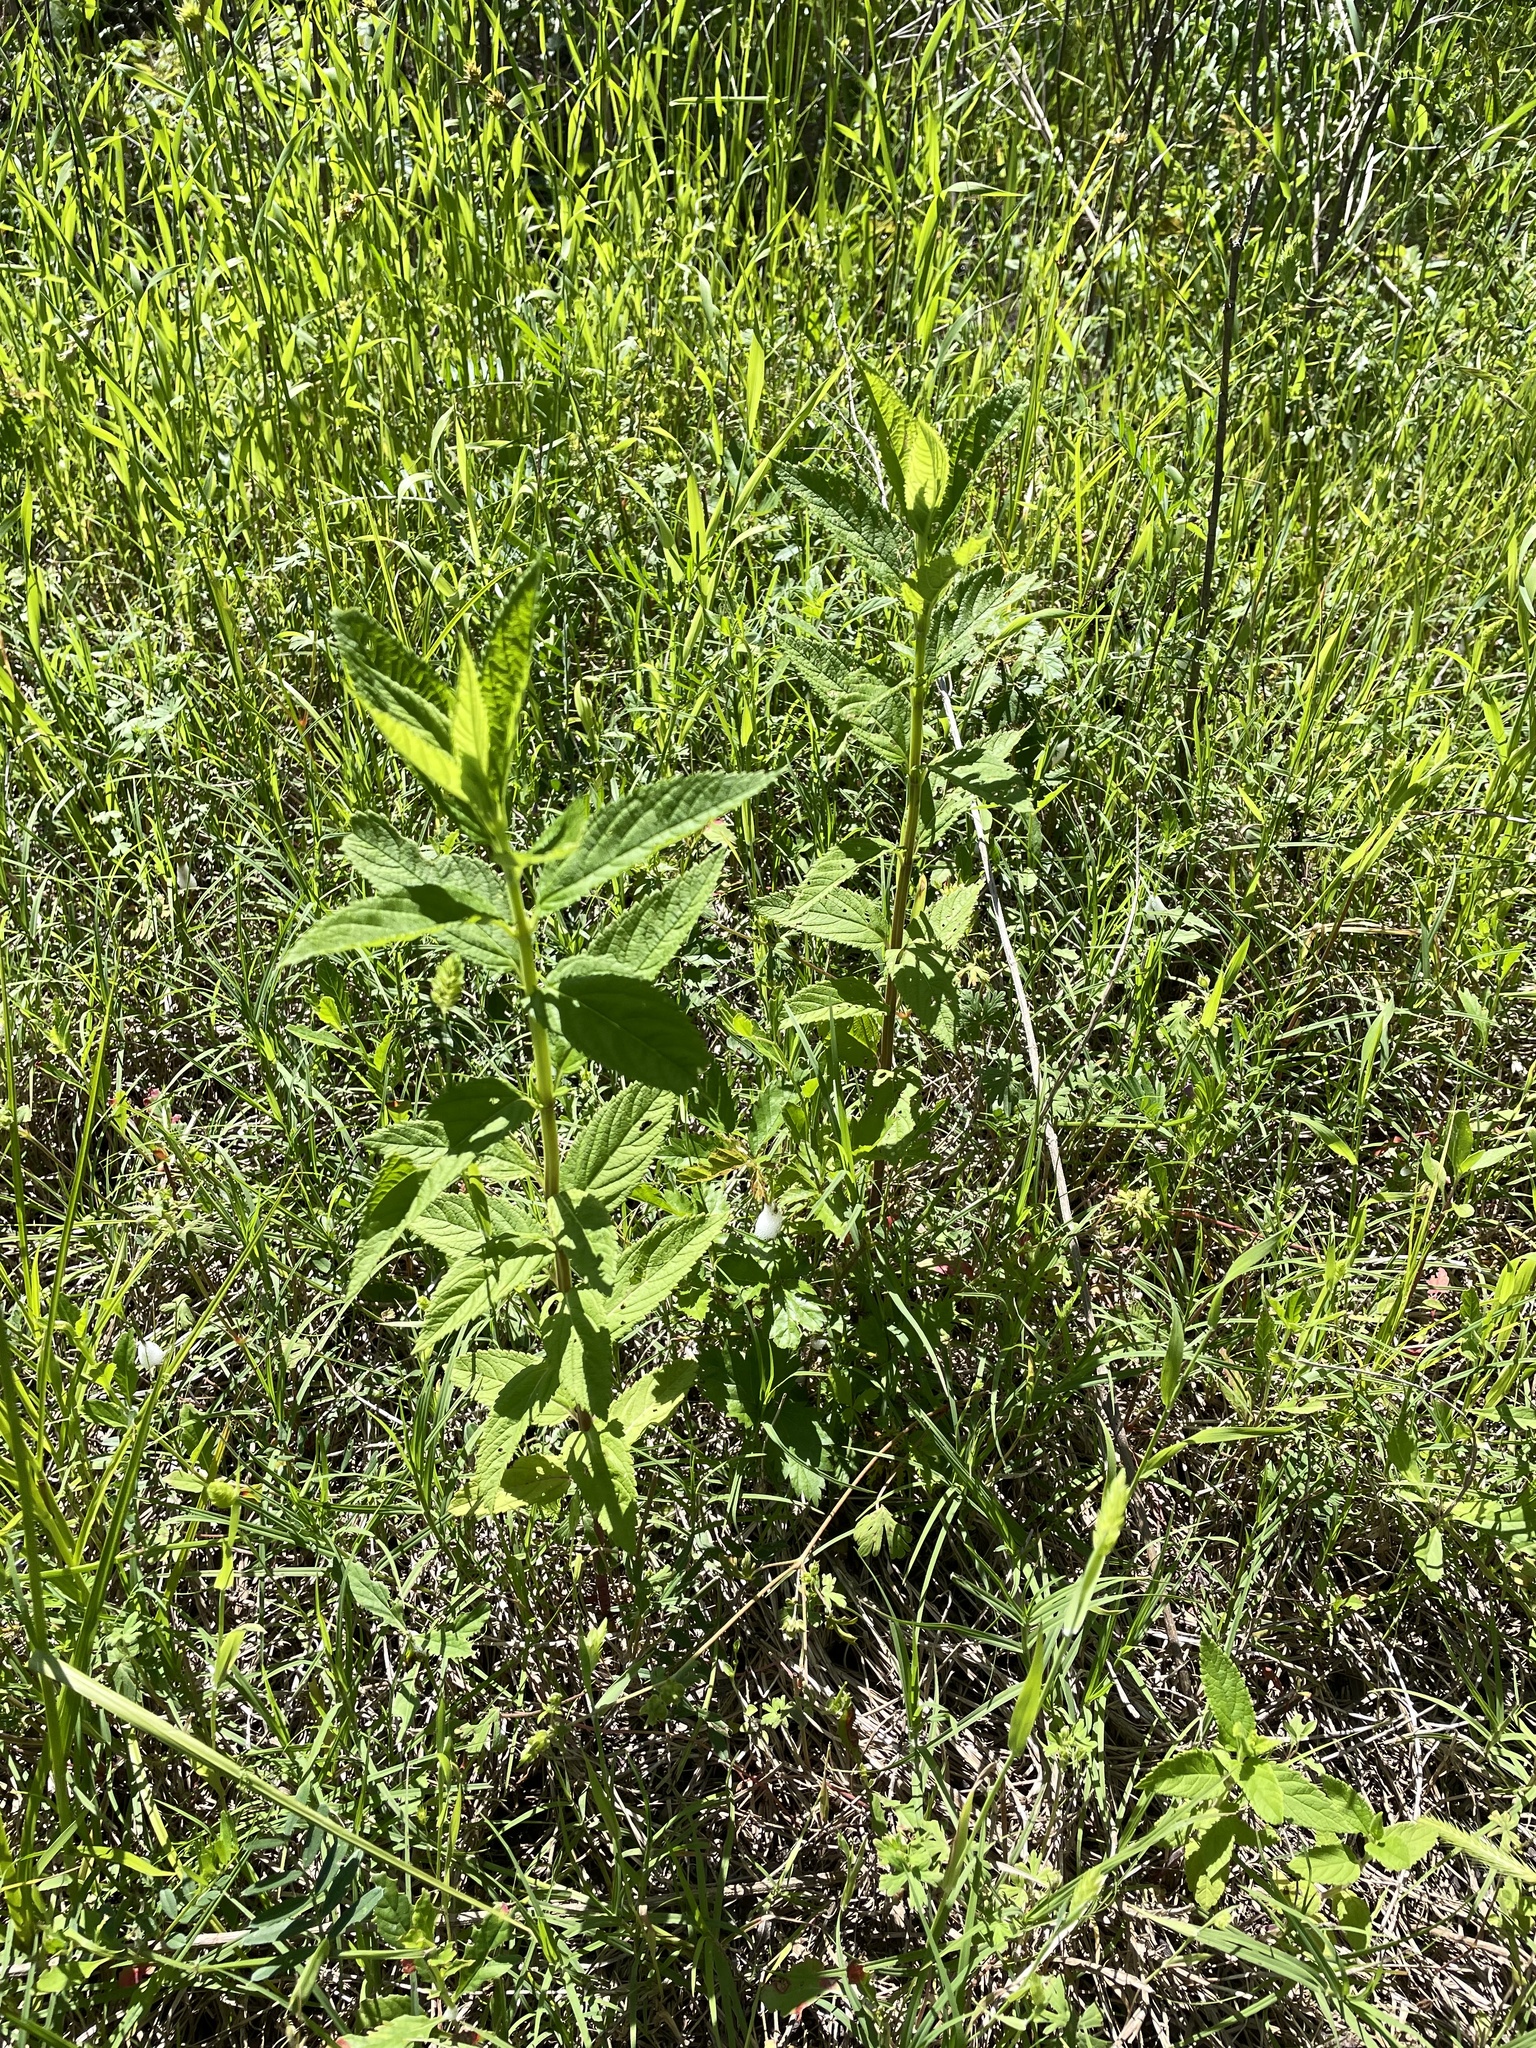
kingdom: Plantae
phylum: Tracheophyta
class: Magnoliopsida
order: Lamiales
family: Lamiaceae
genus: Teucrium
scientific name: Teucrium canadense
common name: American germander
